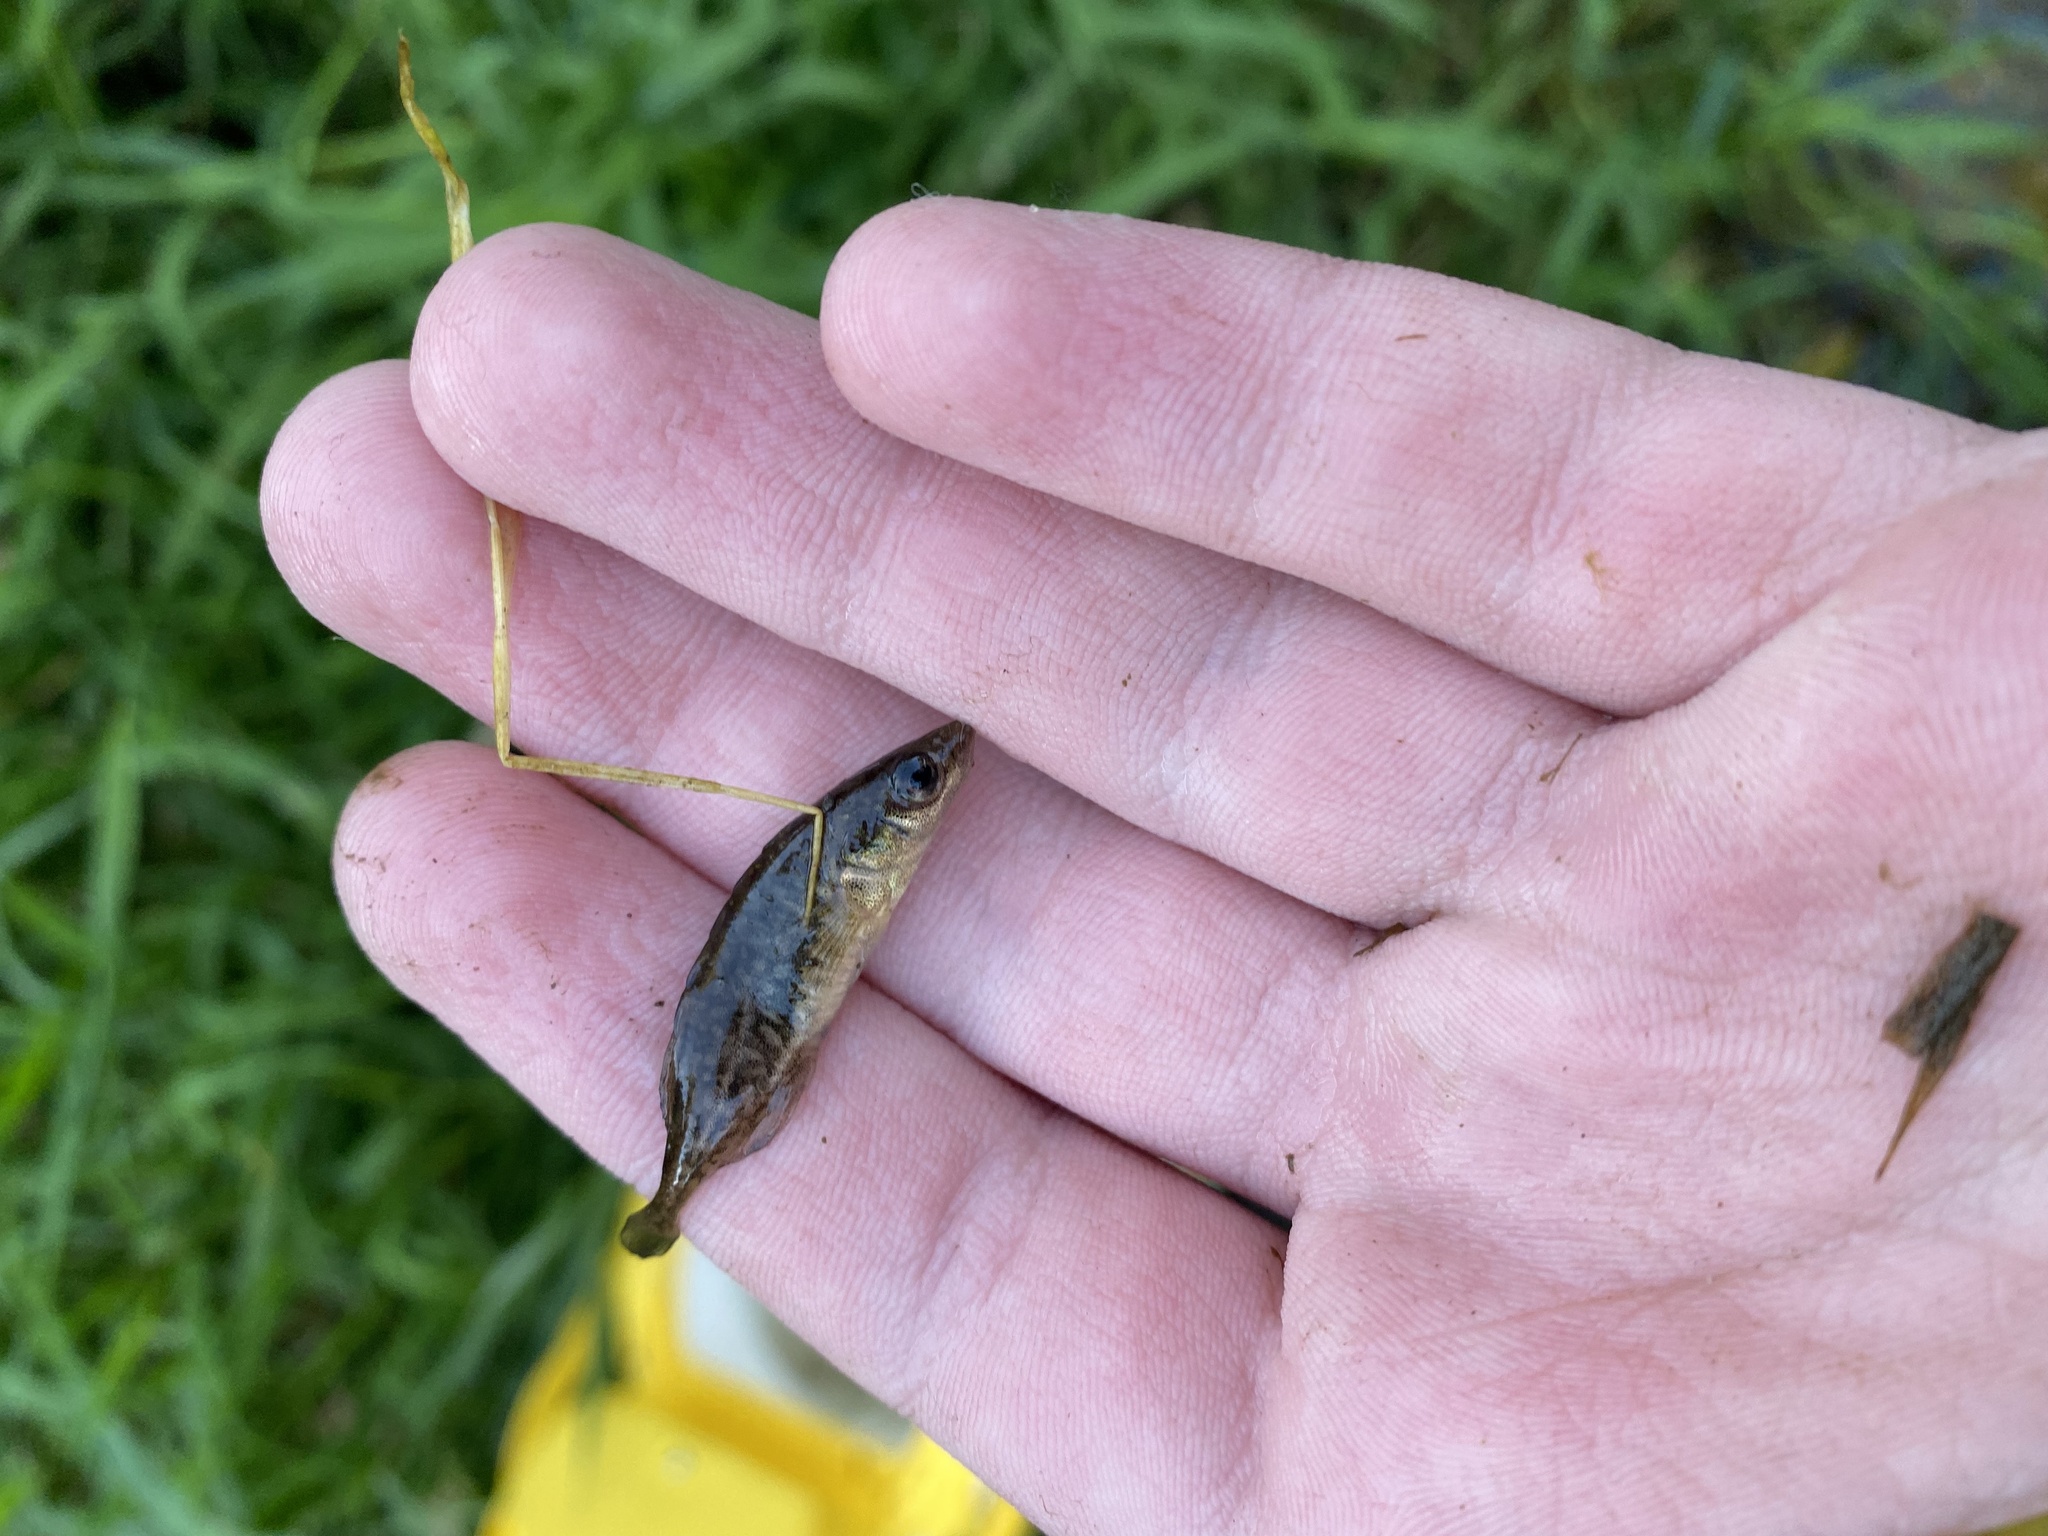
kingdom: Animalia
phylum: Chordata
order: Gasterosteiformes
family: Gasterosteidae
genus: Culaea
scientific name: Culaea inconstans
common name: Brook stickleback
